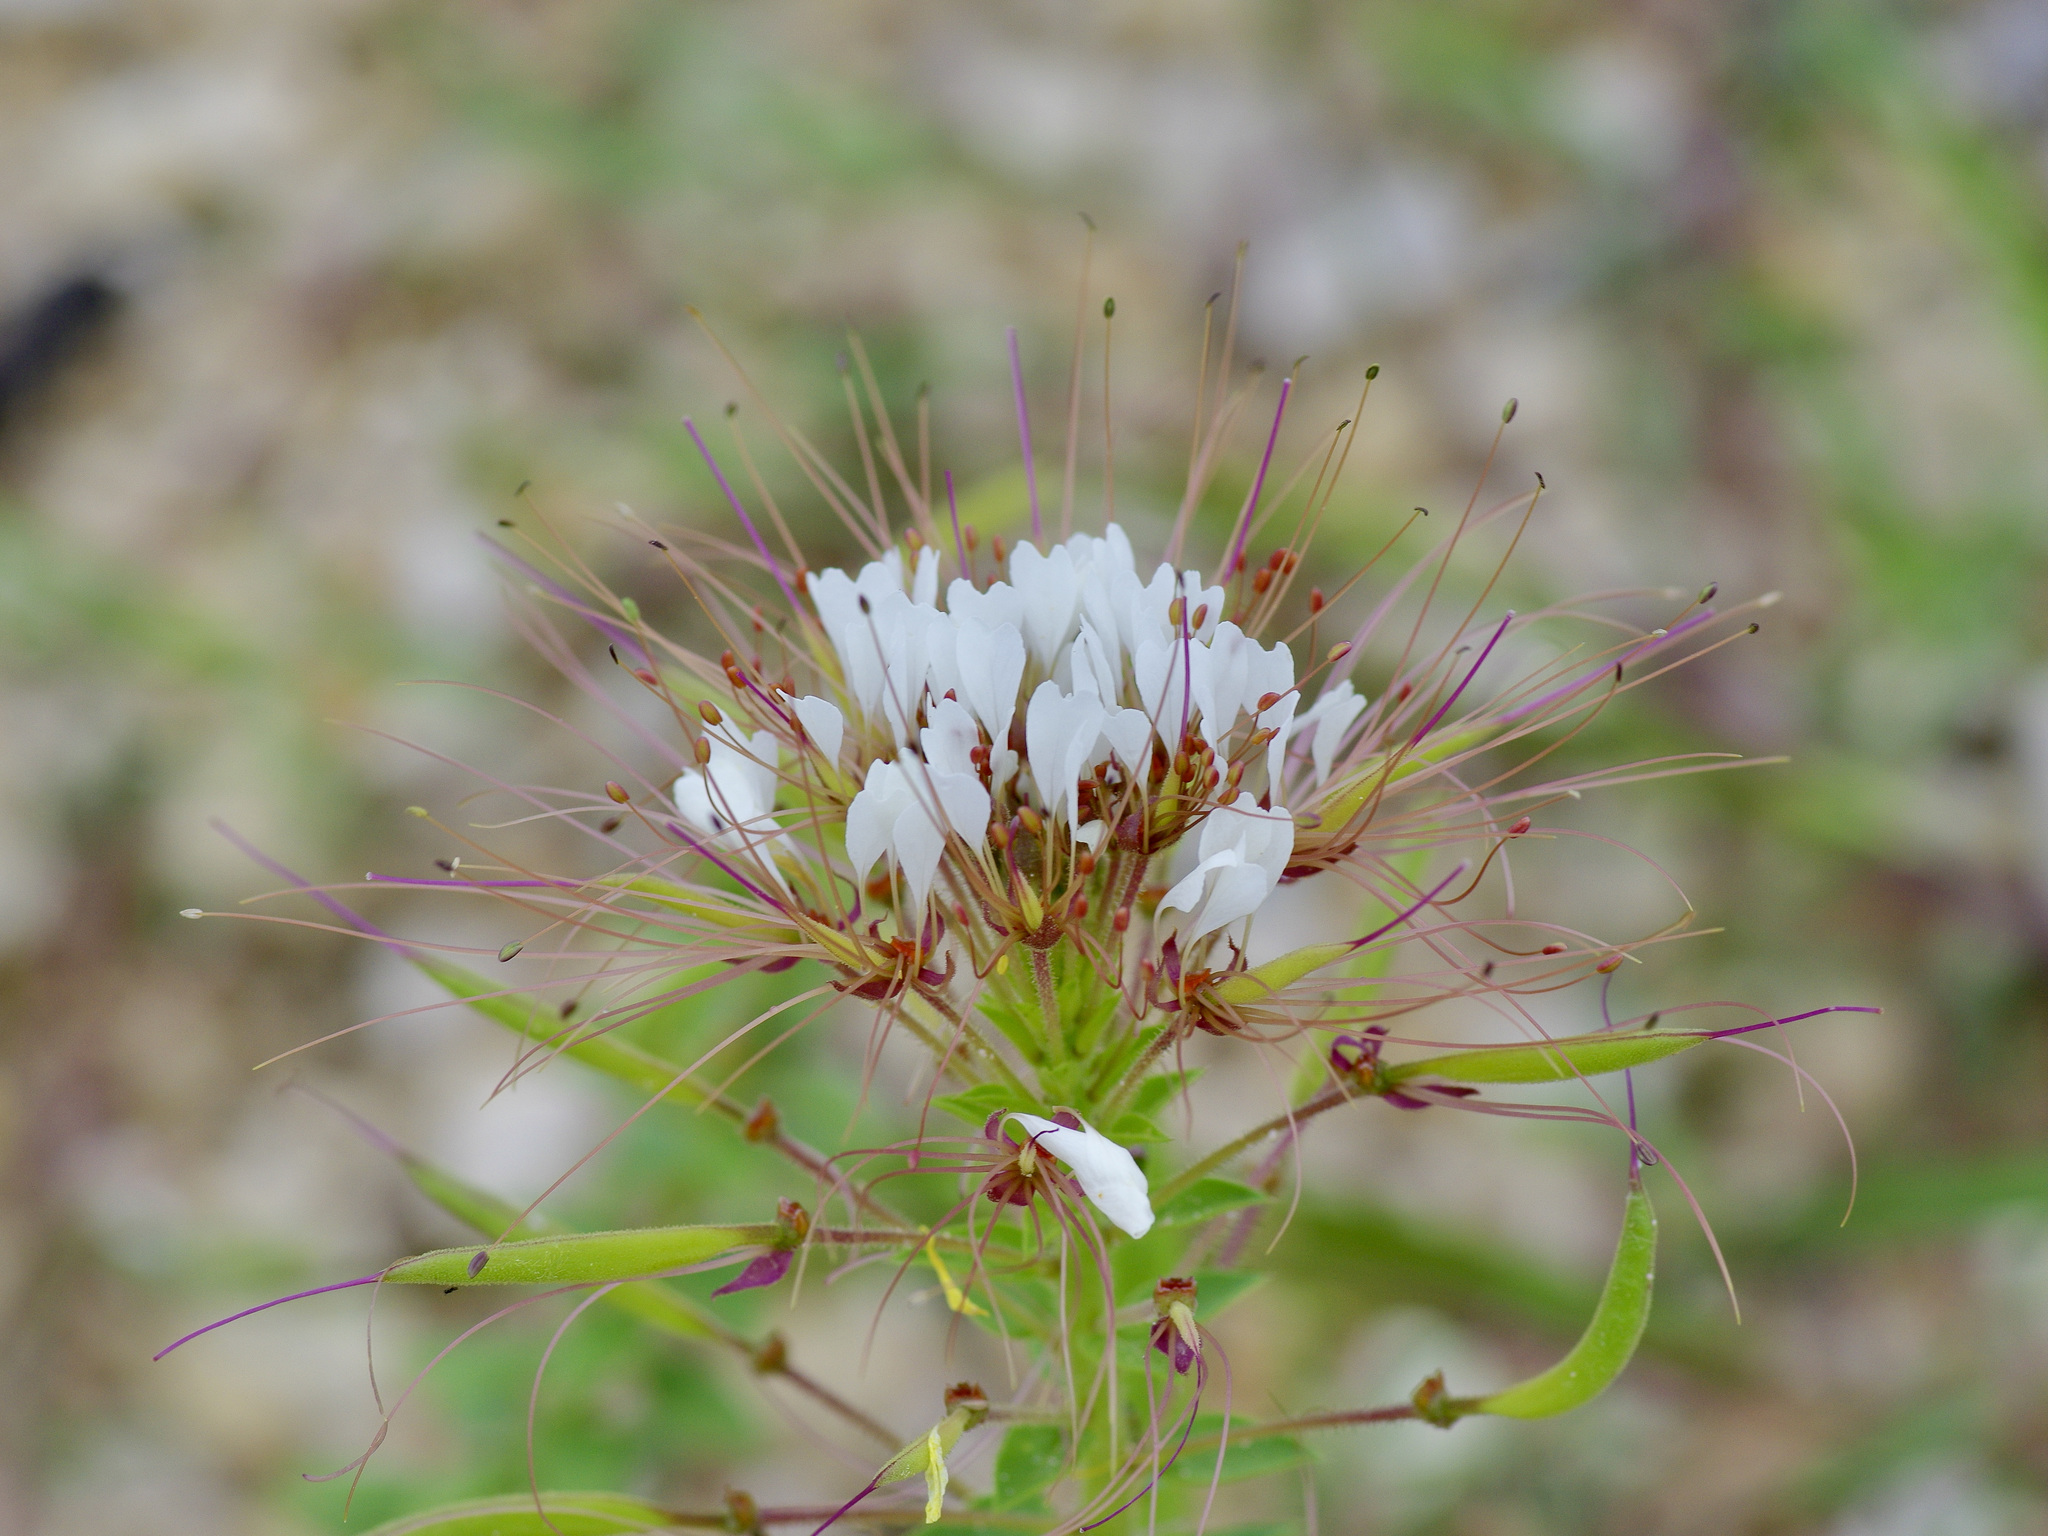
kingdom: Plantae
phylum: Tracheophyta
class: Magnoliopsida
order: Brassicales
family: Cleomaceae
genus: Polanisia
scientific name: Polanisia dodecandra
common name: Clammyweed
